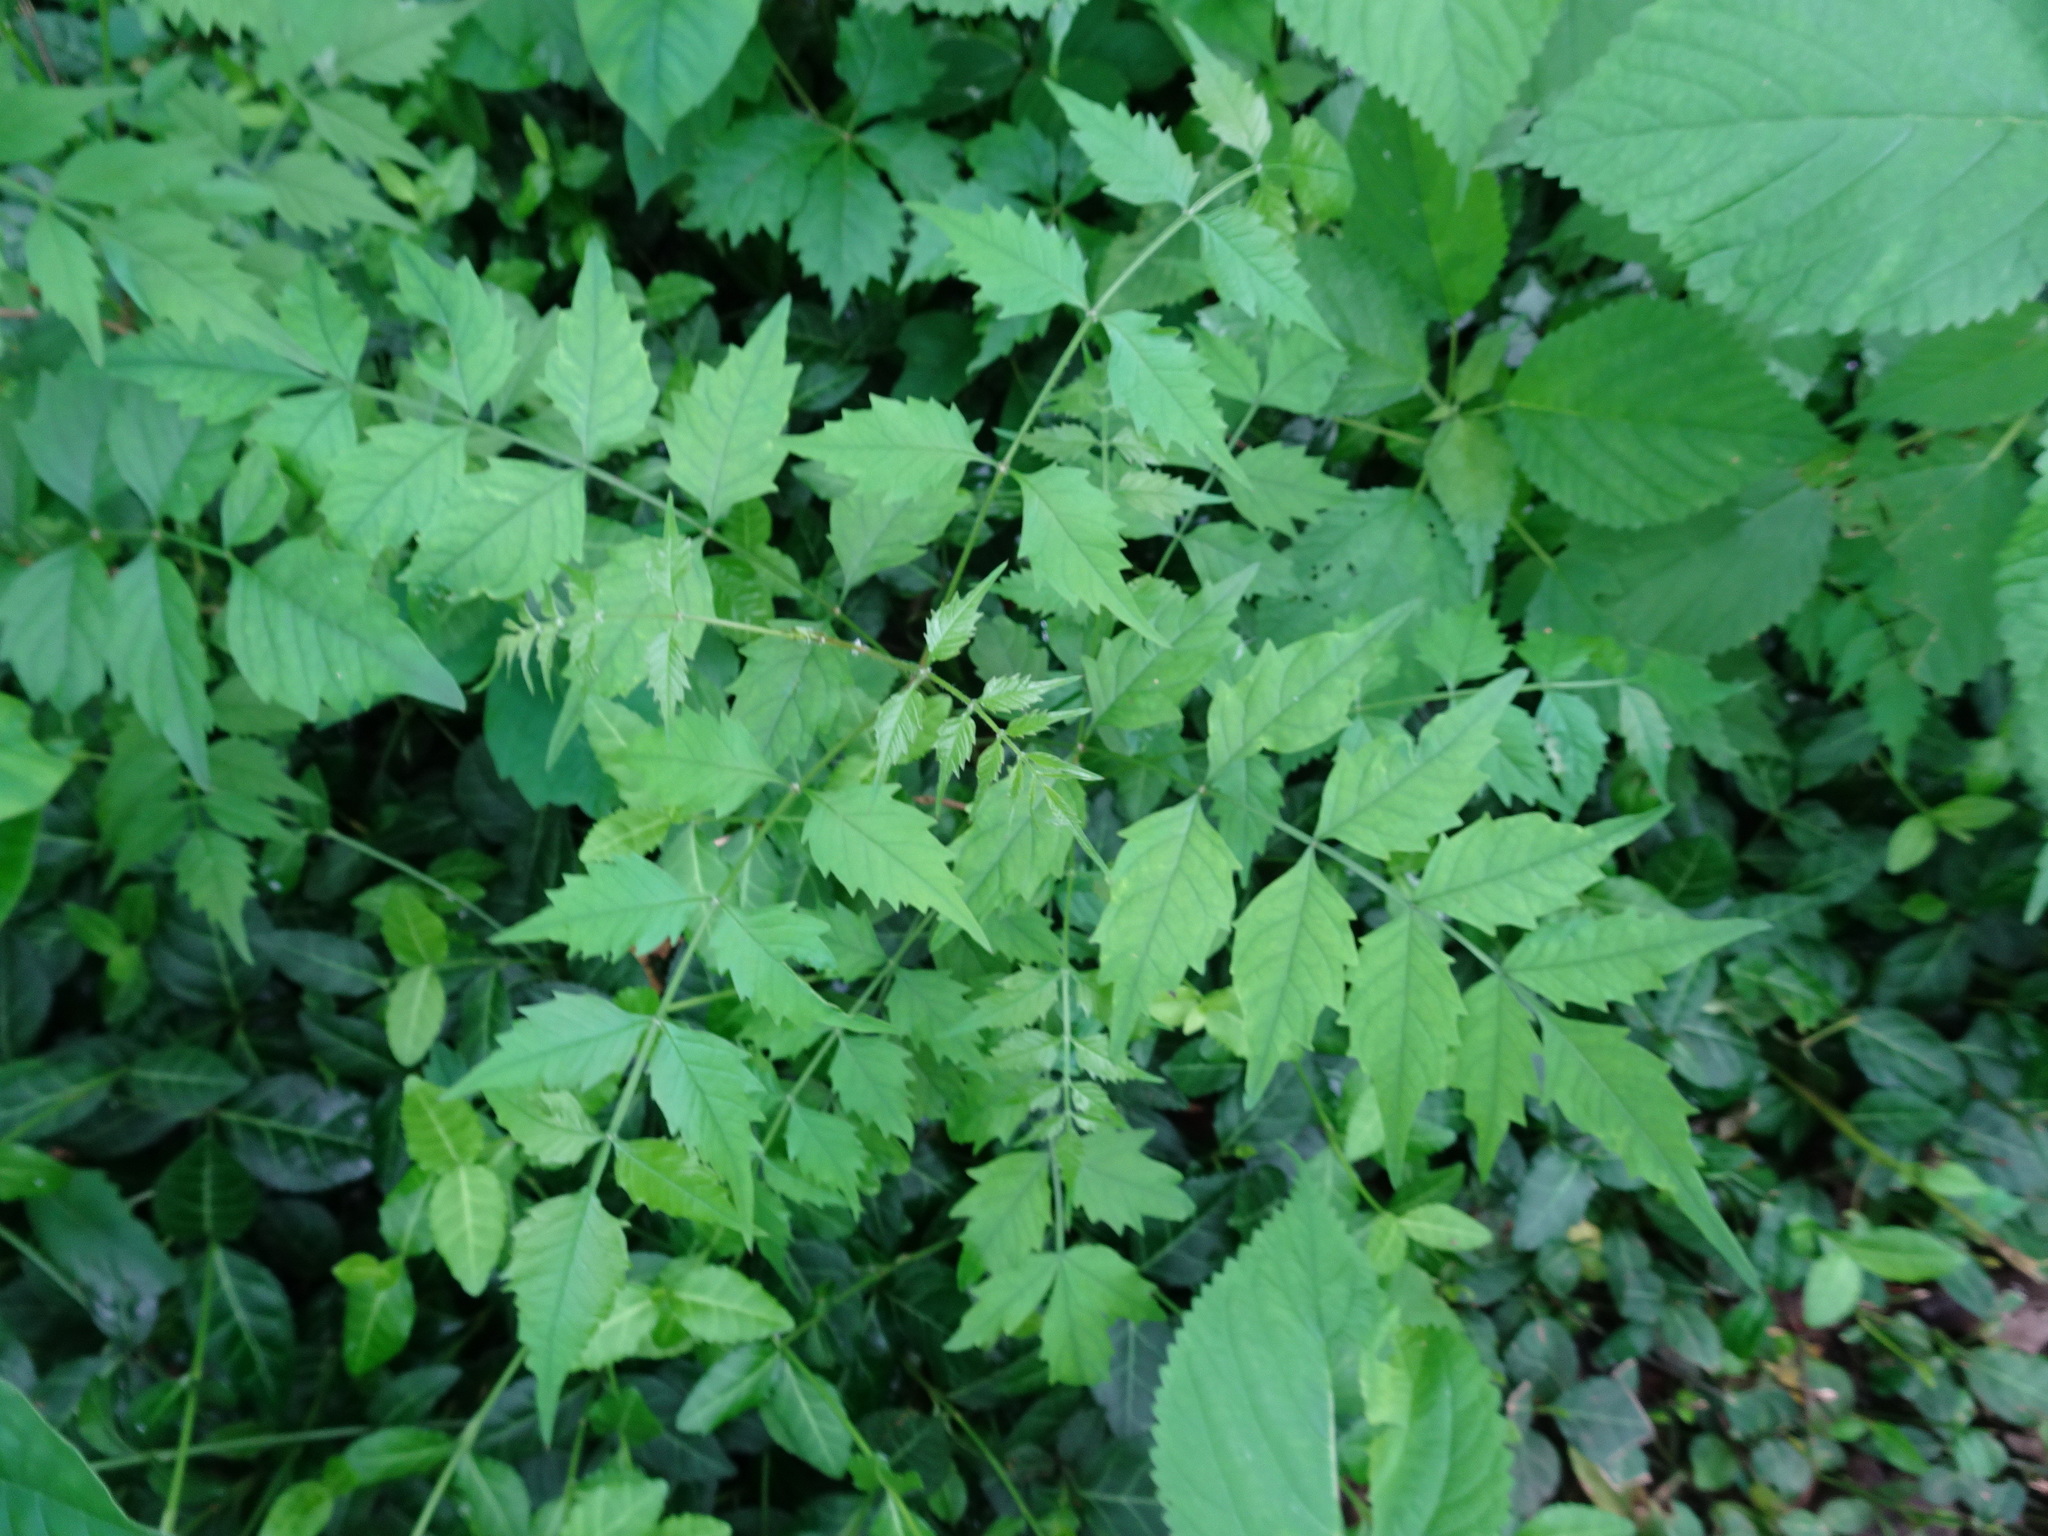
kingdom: Plantae
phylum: Tracheophyta
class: Magnoliopsida
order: Lamiales
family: Bignoniaceae
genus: Campsis
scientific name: Campsis radicans
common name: Trumpet-creeper
